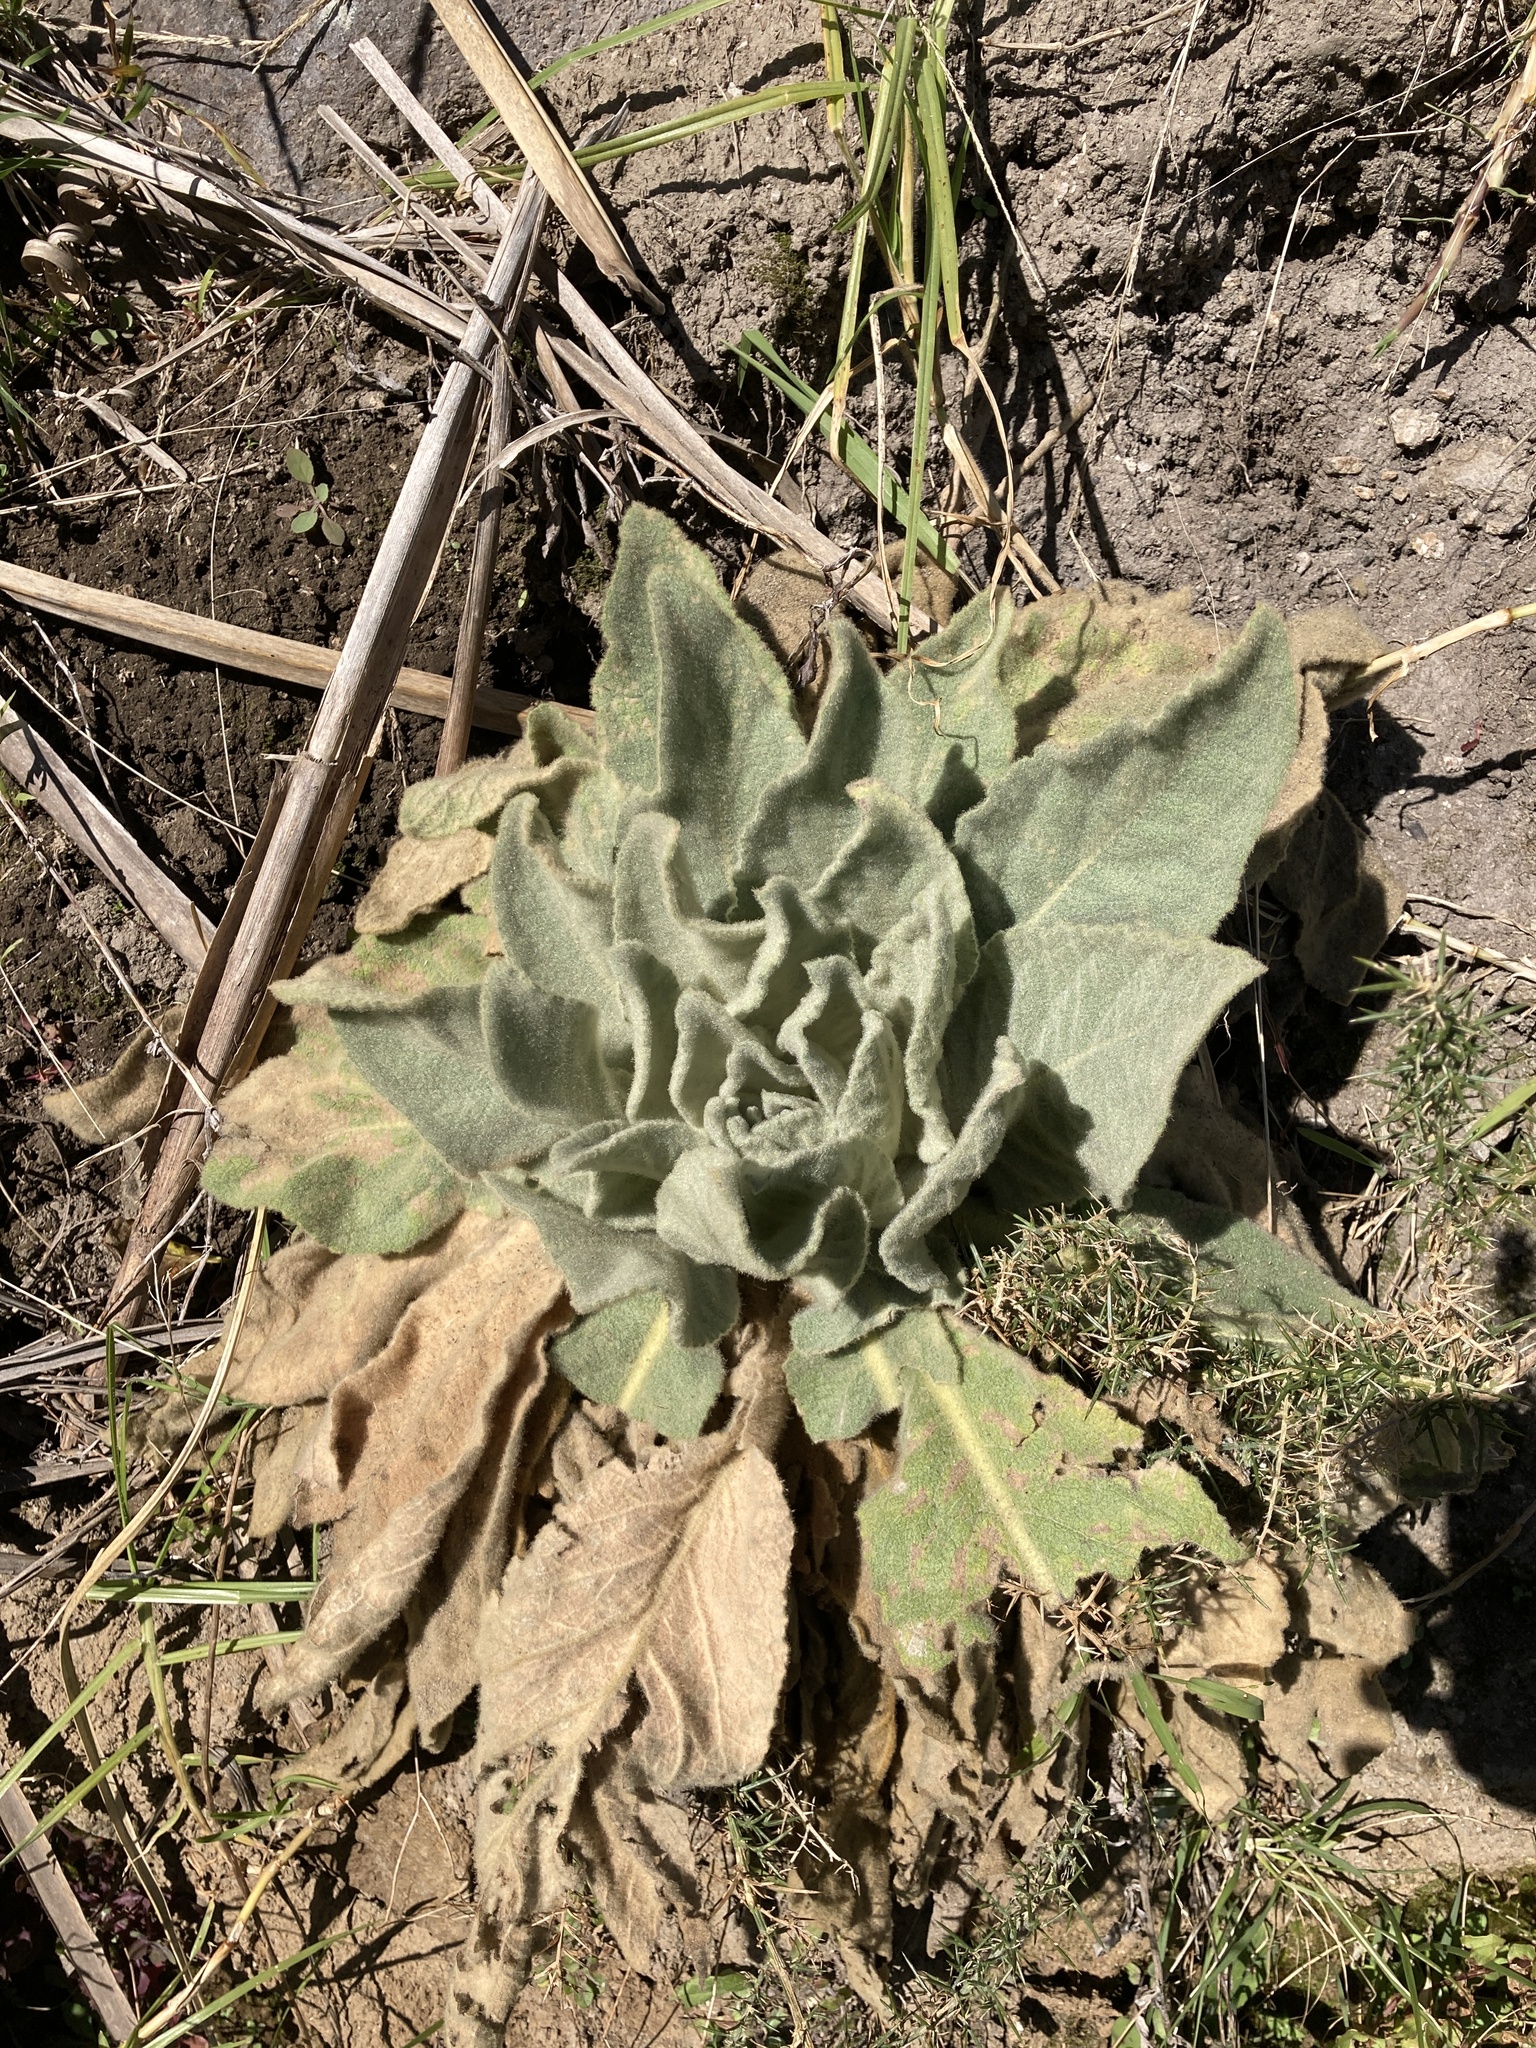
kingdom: Plantae
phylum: Tracheophyta
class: Magnoliopsida
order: Lamiales
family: Scrophulariaceae
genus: Verbascum
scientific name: Verbascum thapsus
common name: Common mullein
